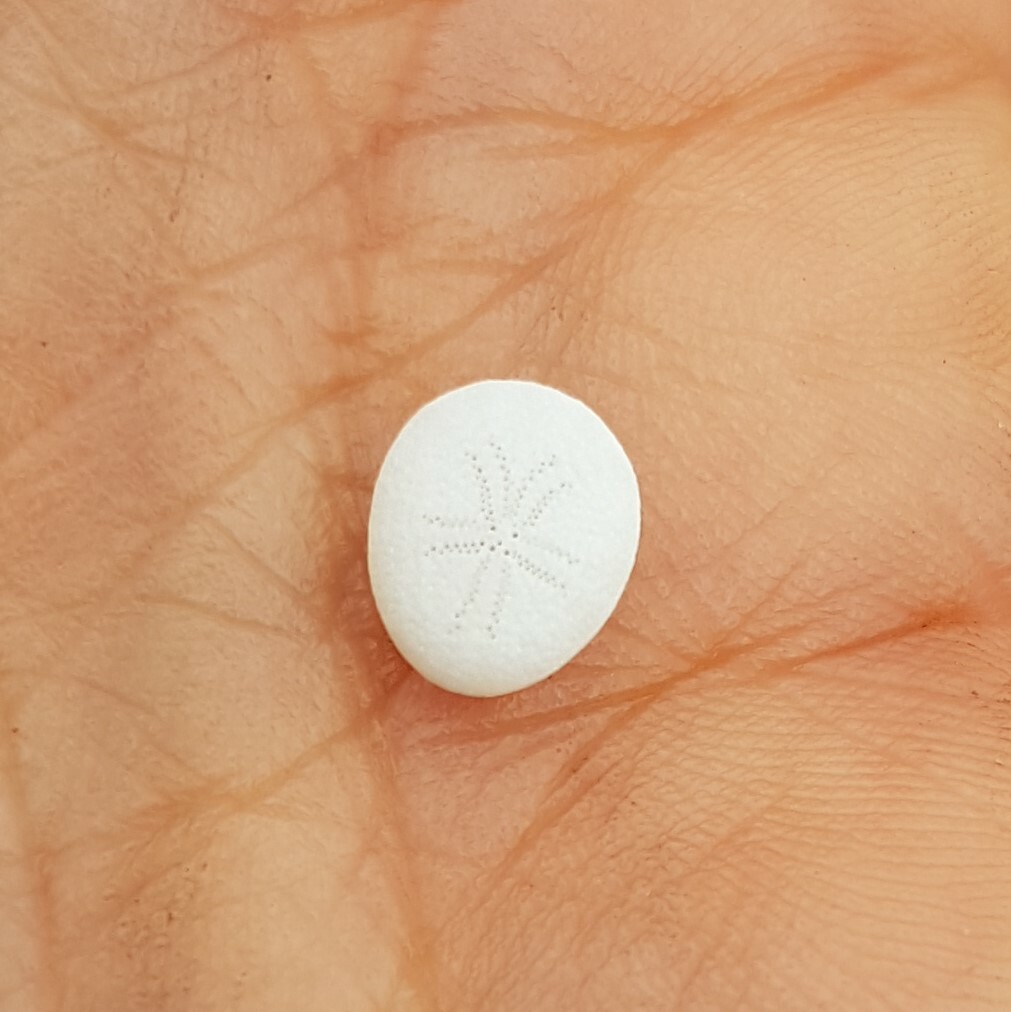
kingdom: Animalia
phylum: Echinodermata
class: Echinoidea
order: Echinolampadacea
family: Fibulariidae
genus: Echinocyamus
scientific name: Echinocyamus pusillus
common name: Broad beau of sea
